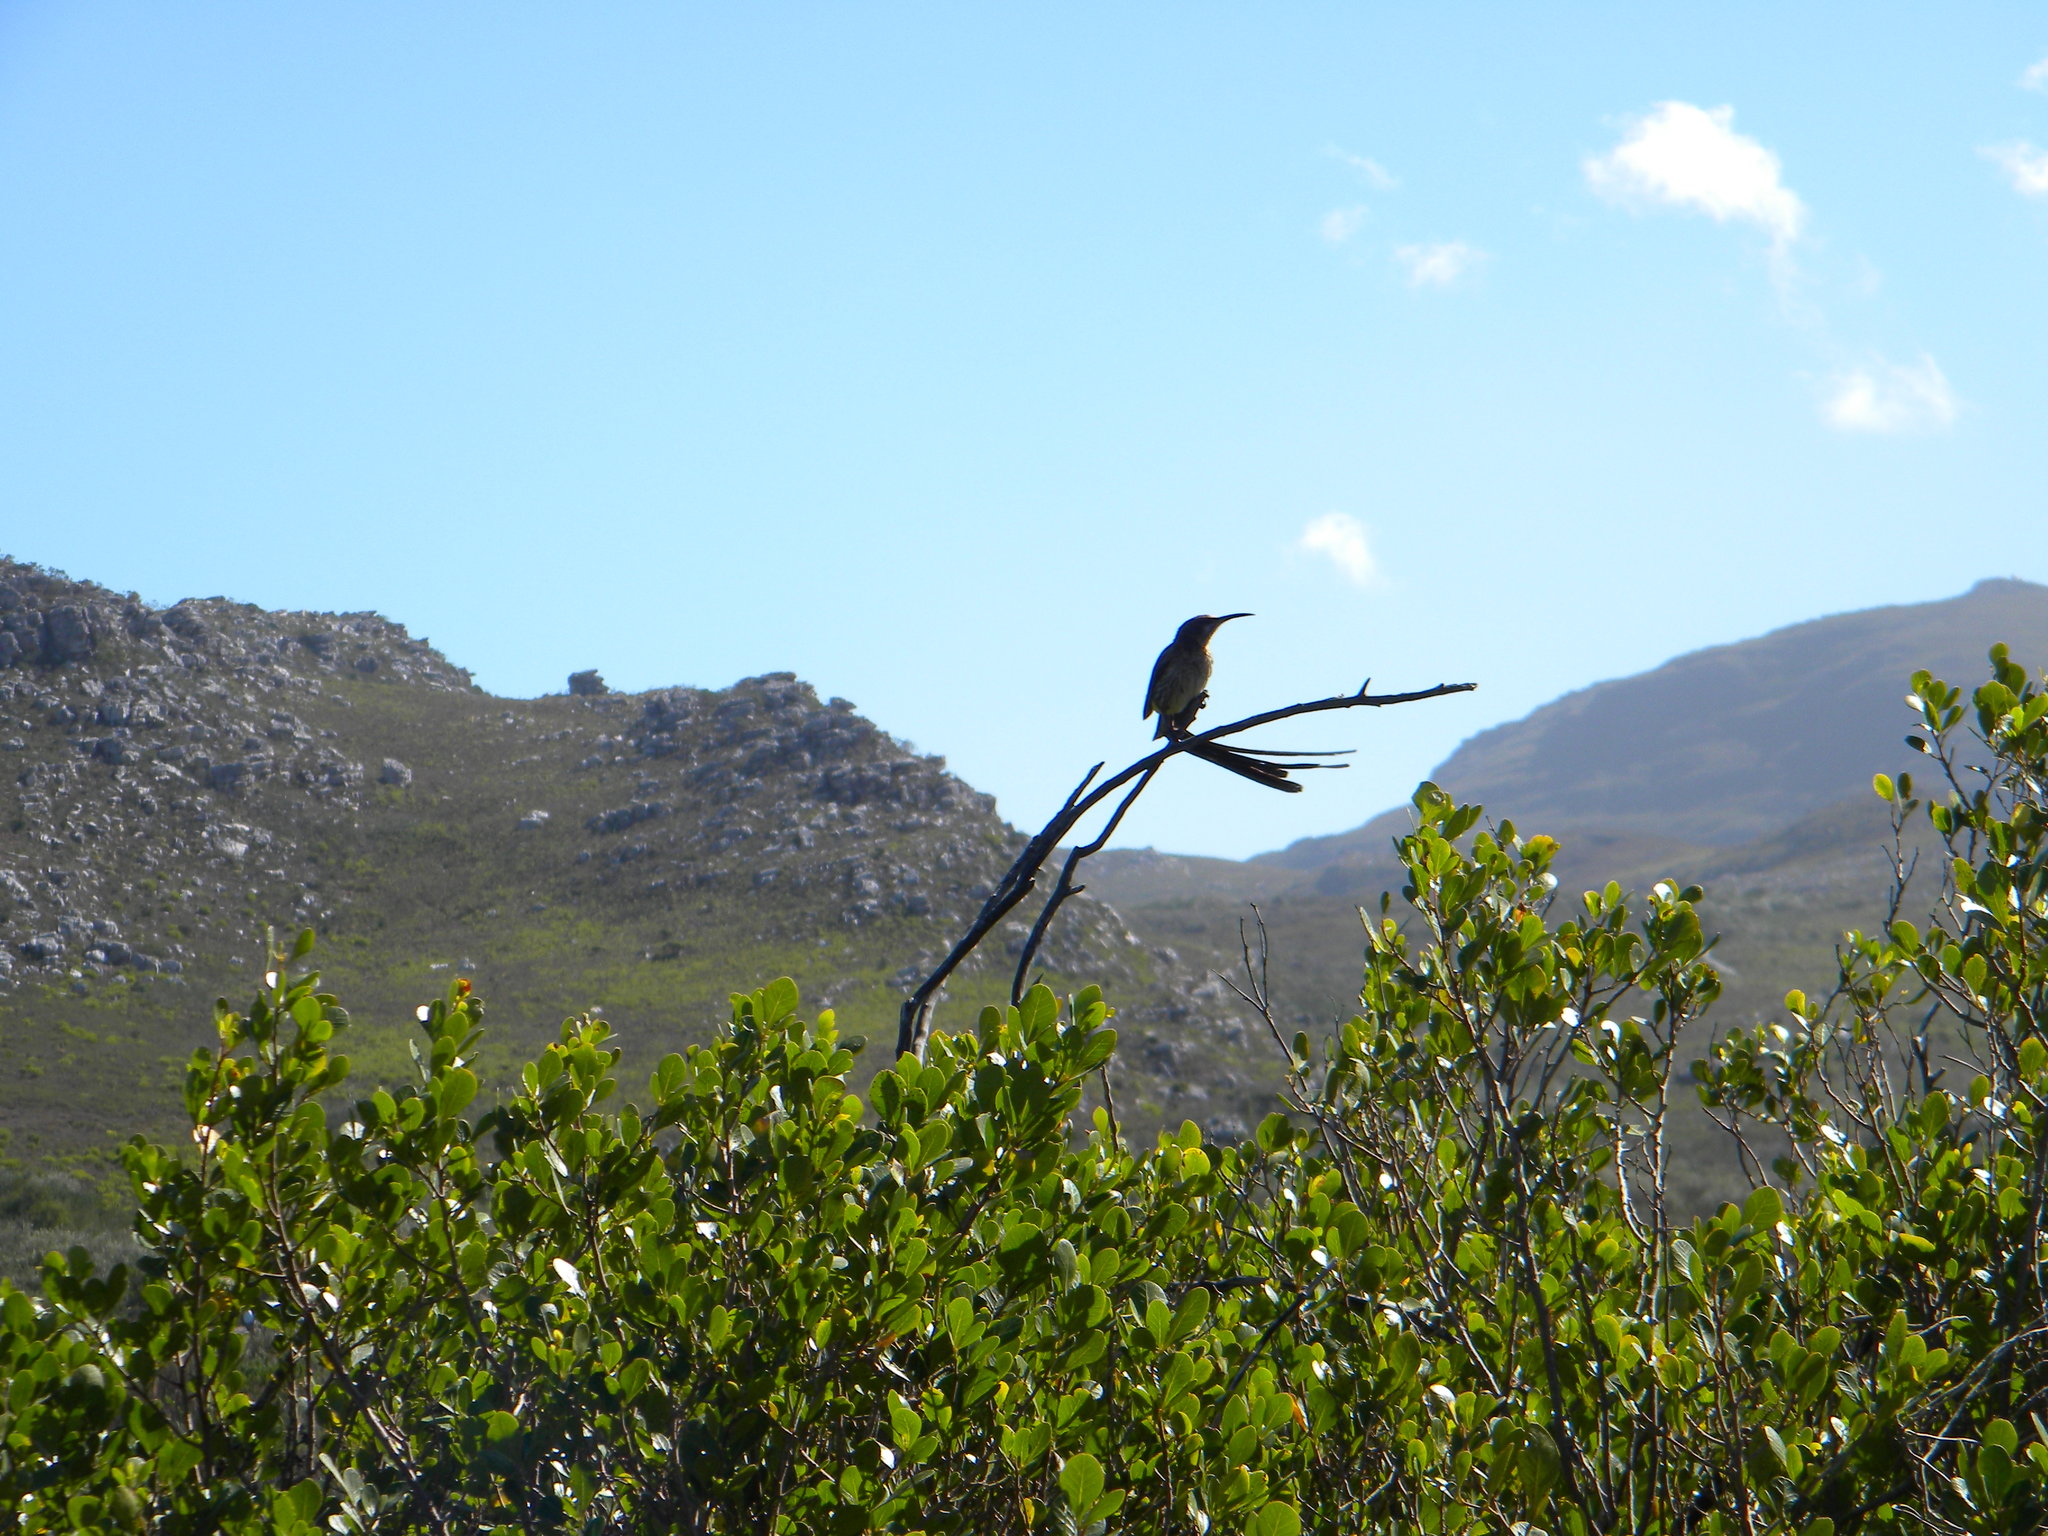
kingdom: Animalia
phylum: Chordata
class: Aves
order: Passeriformes
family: Promeropidae
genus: Promerops
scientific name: Promerops cafer
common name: Cape sugarbird
